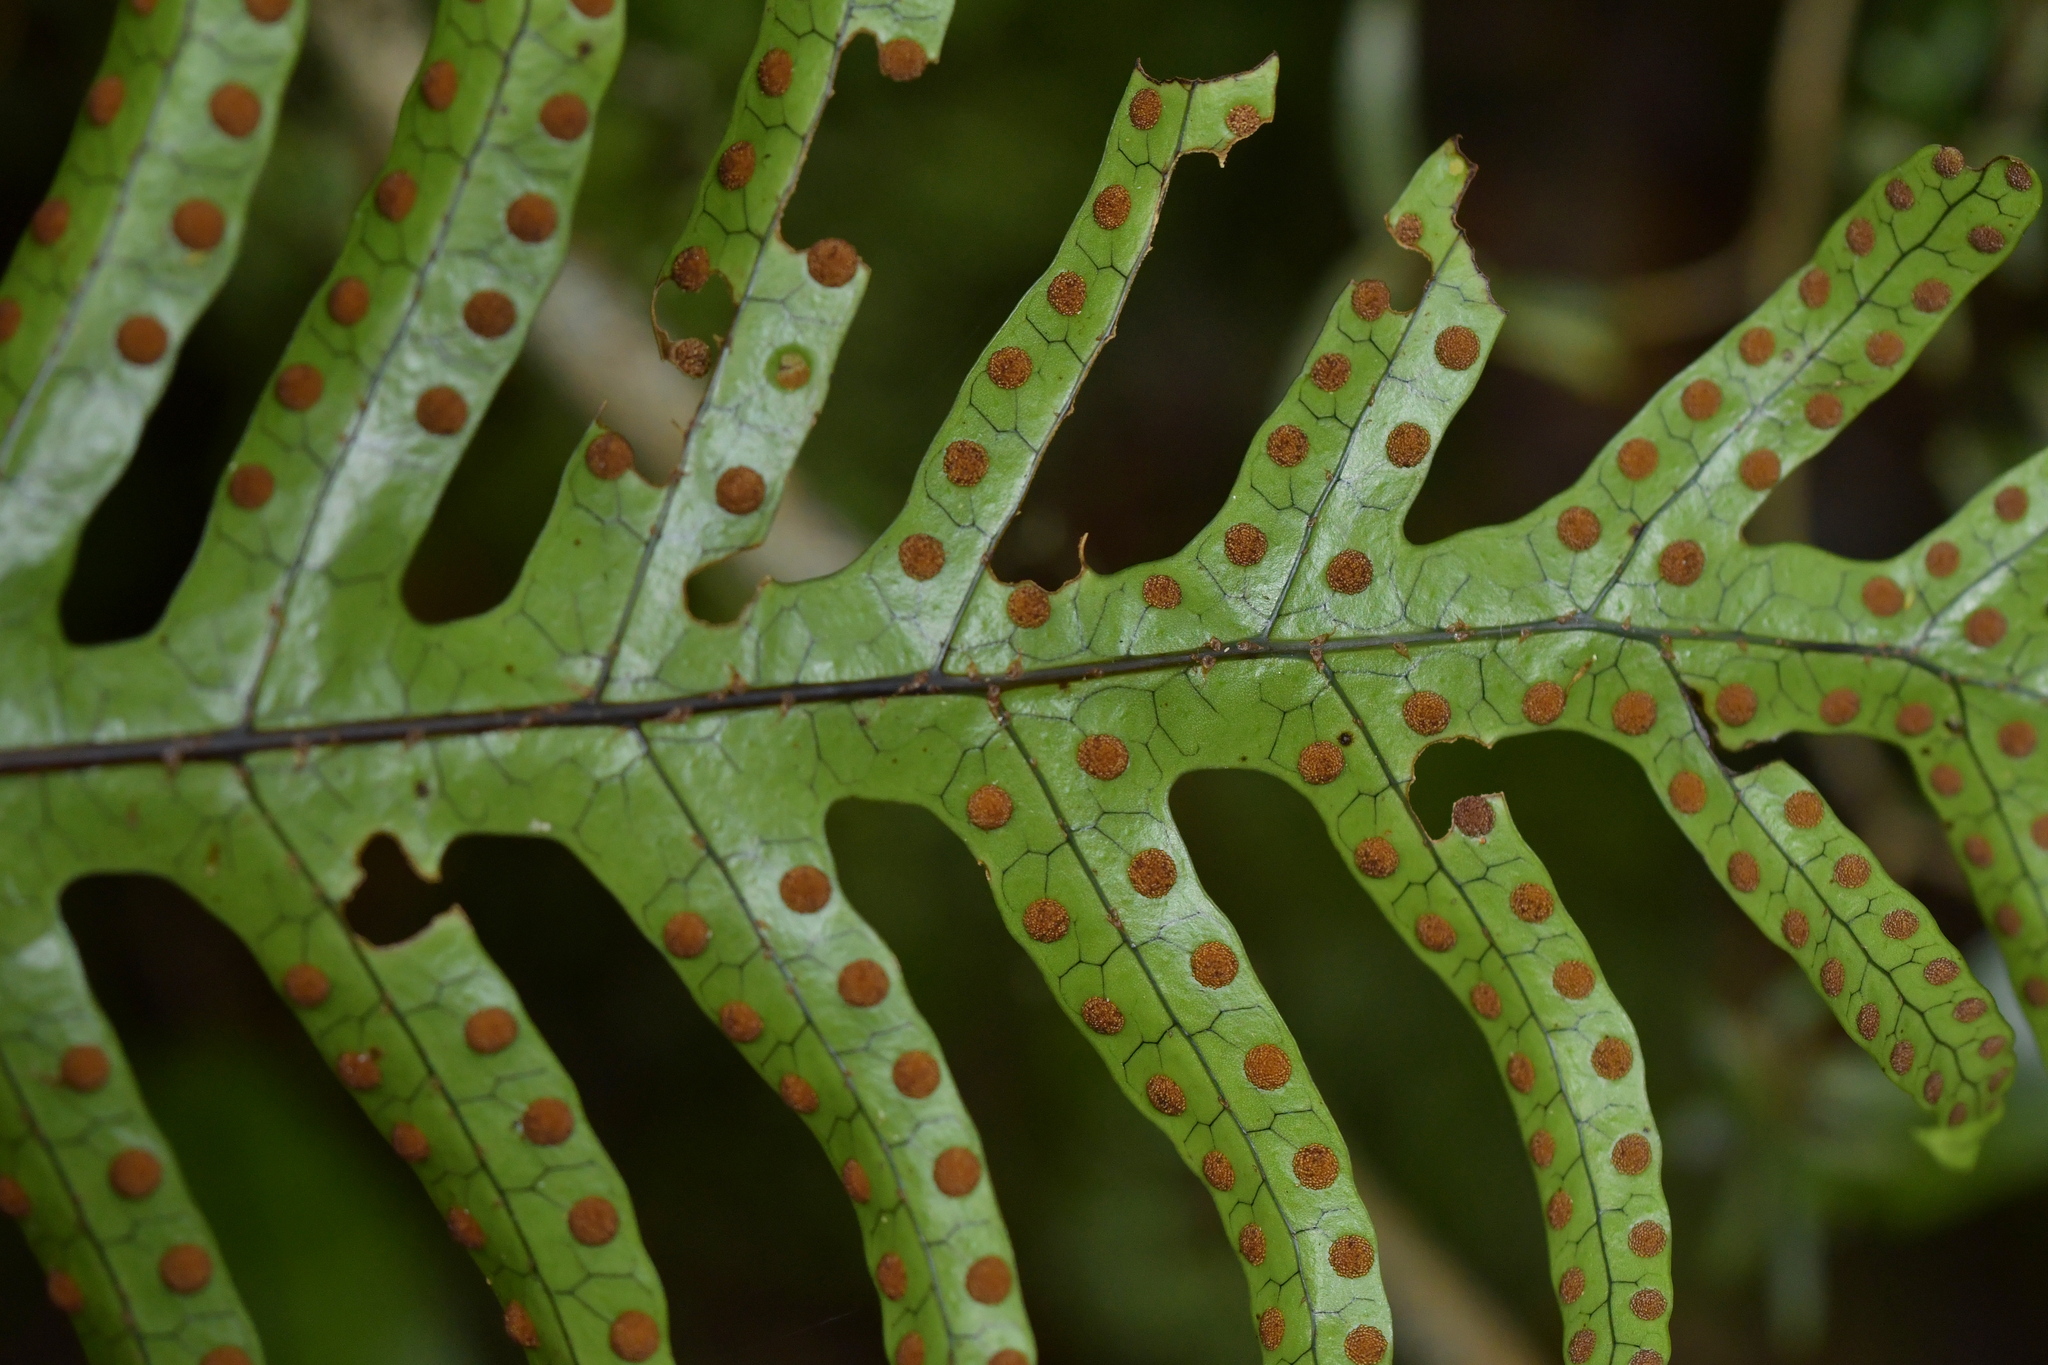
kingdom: Plantae
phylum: Tracheophyta
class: Polypodiopsida
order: Polypodiales
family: Polypodiaceae
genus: Lecanopteris
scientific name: Lecanopteris pustulata
